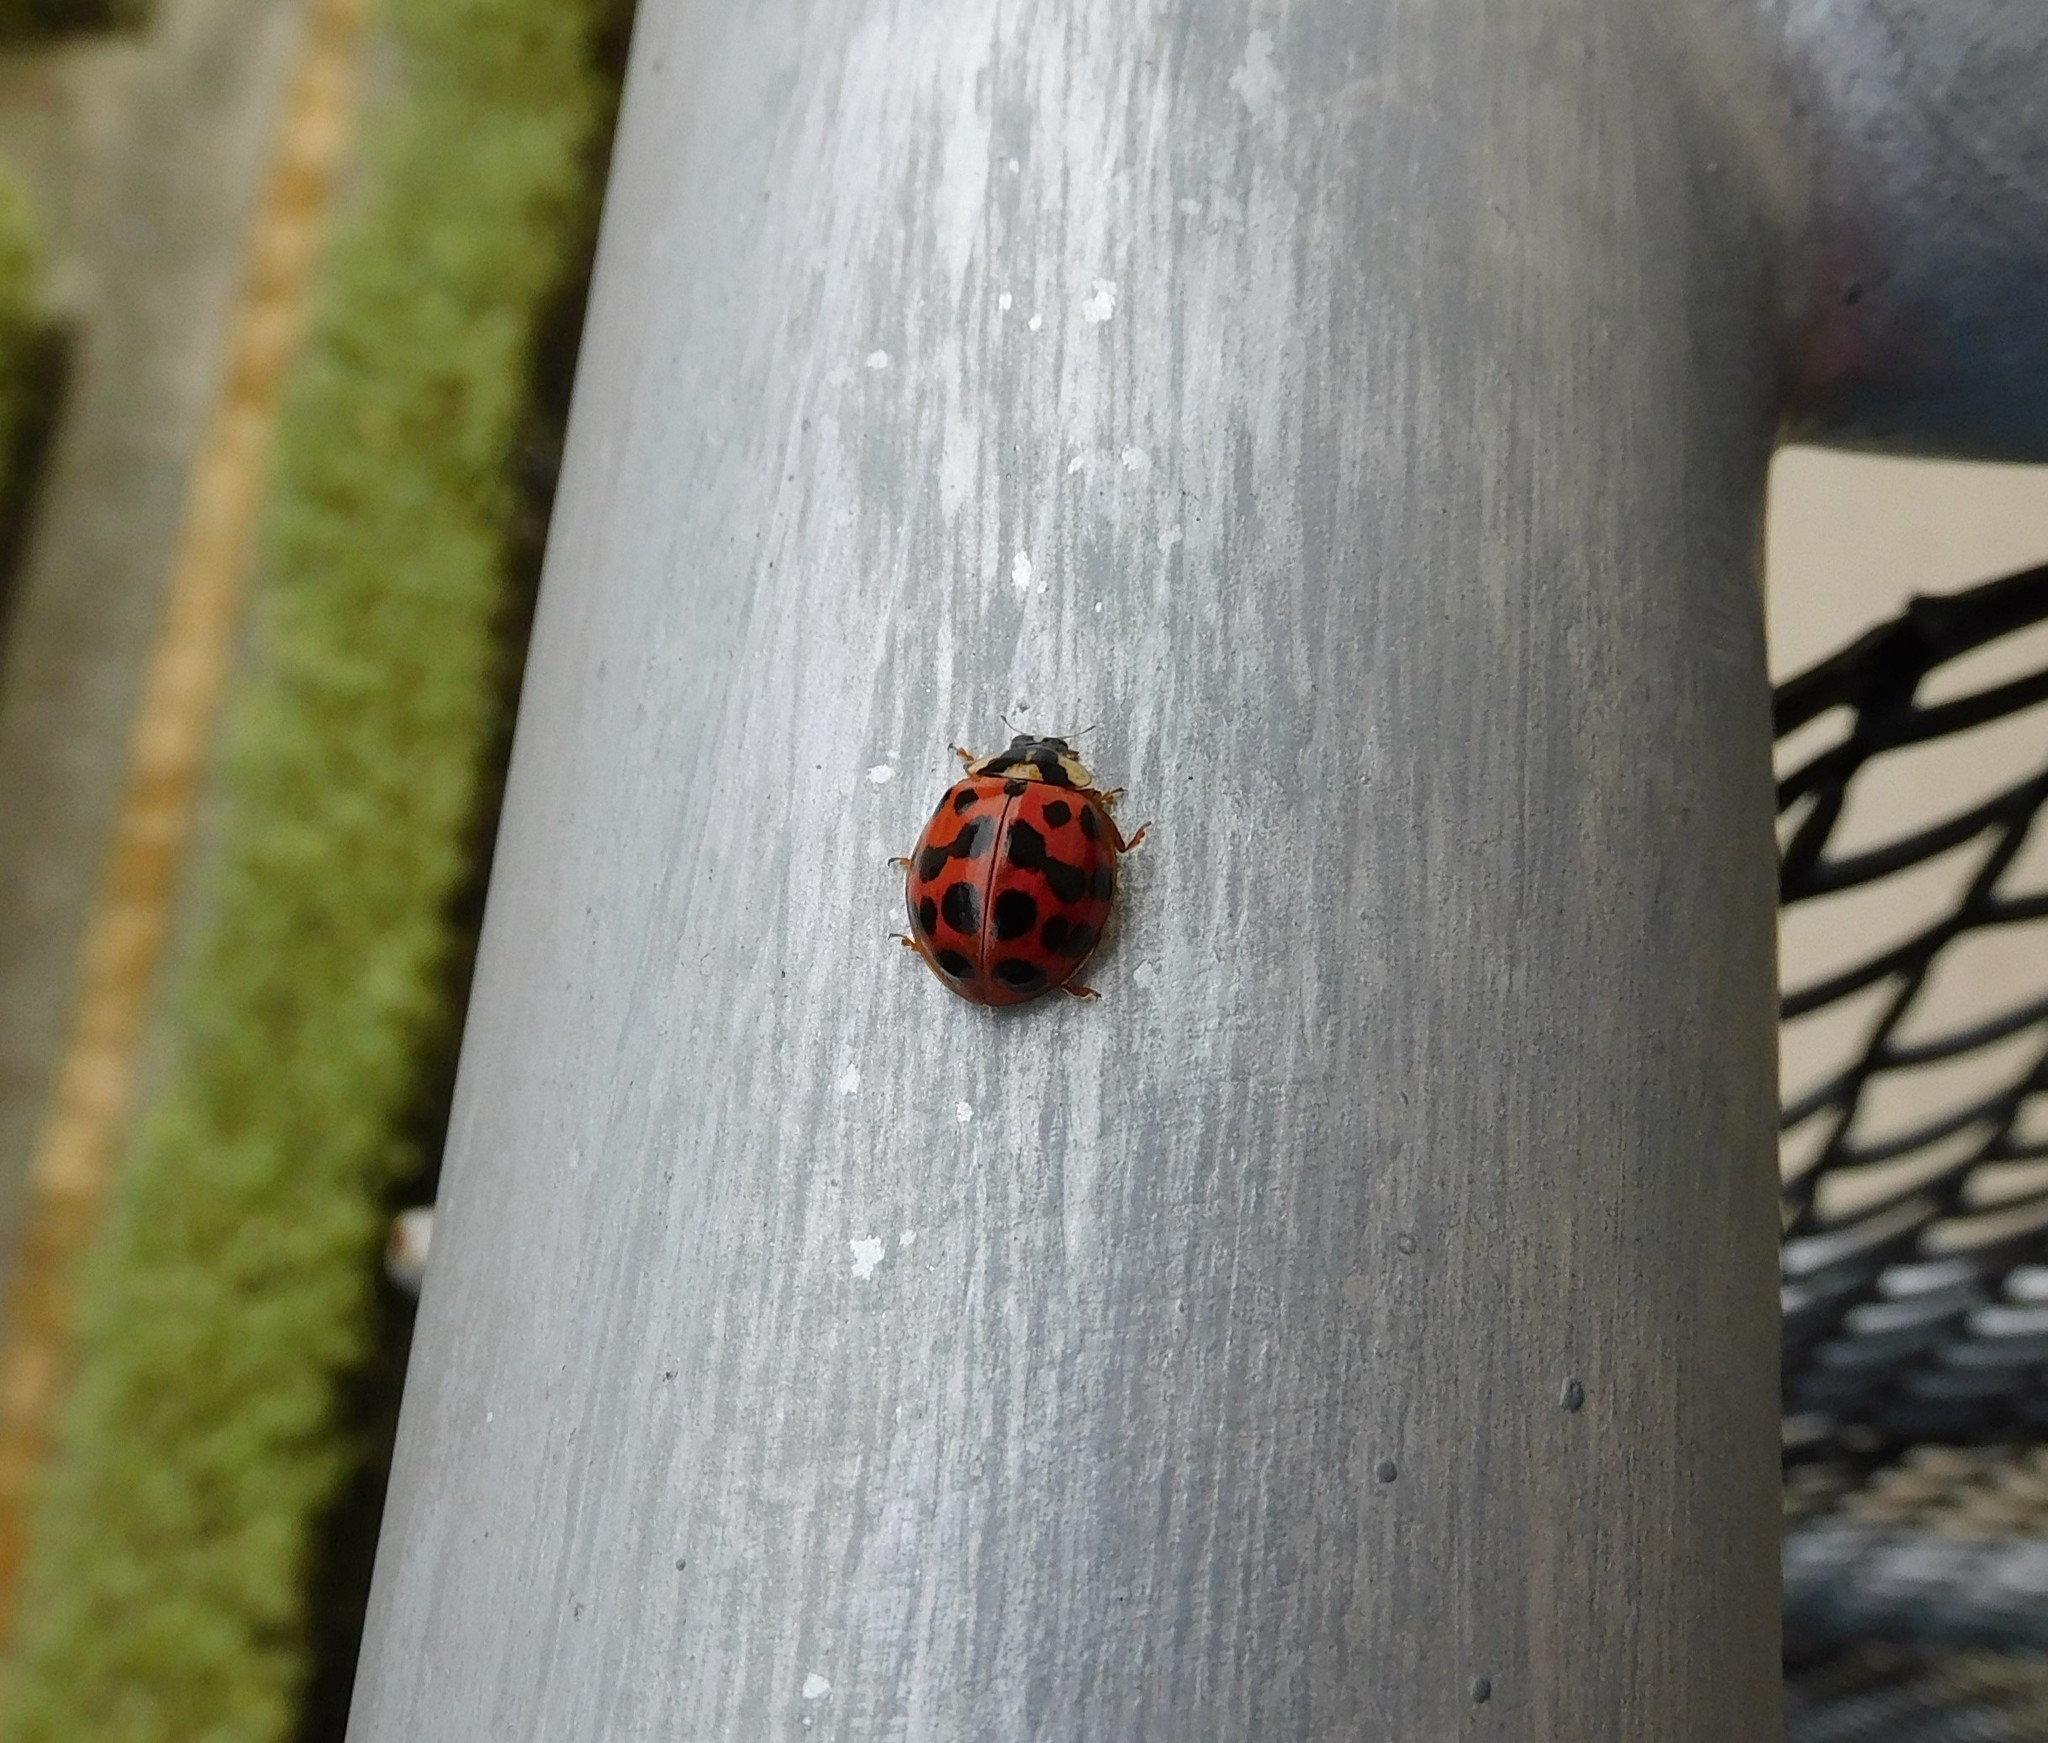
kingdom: Animalia
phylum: Arthropoda
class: Insecta
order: Coleoptera
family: Coccinellidae
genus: Harmonia
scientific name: Harmonia axyridis
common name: Harlequin ladybird
